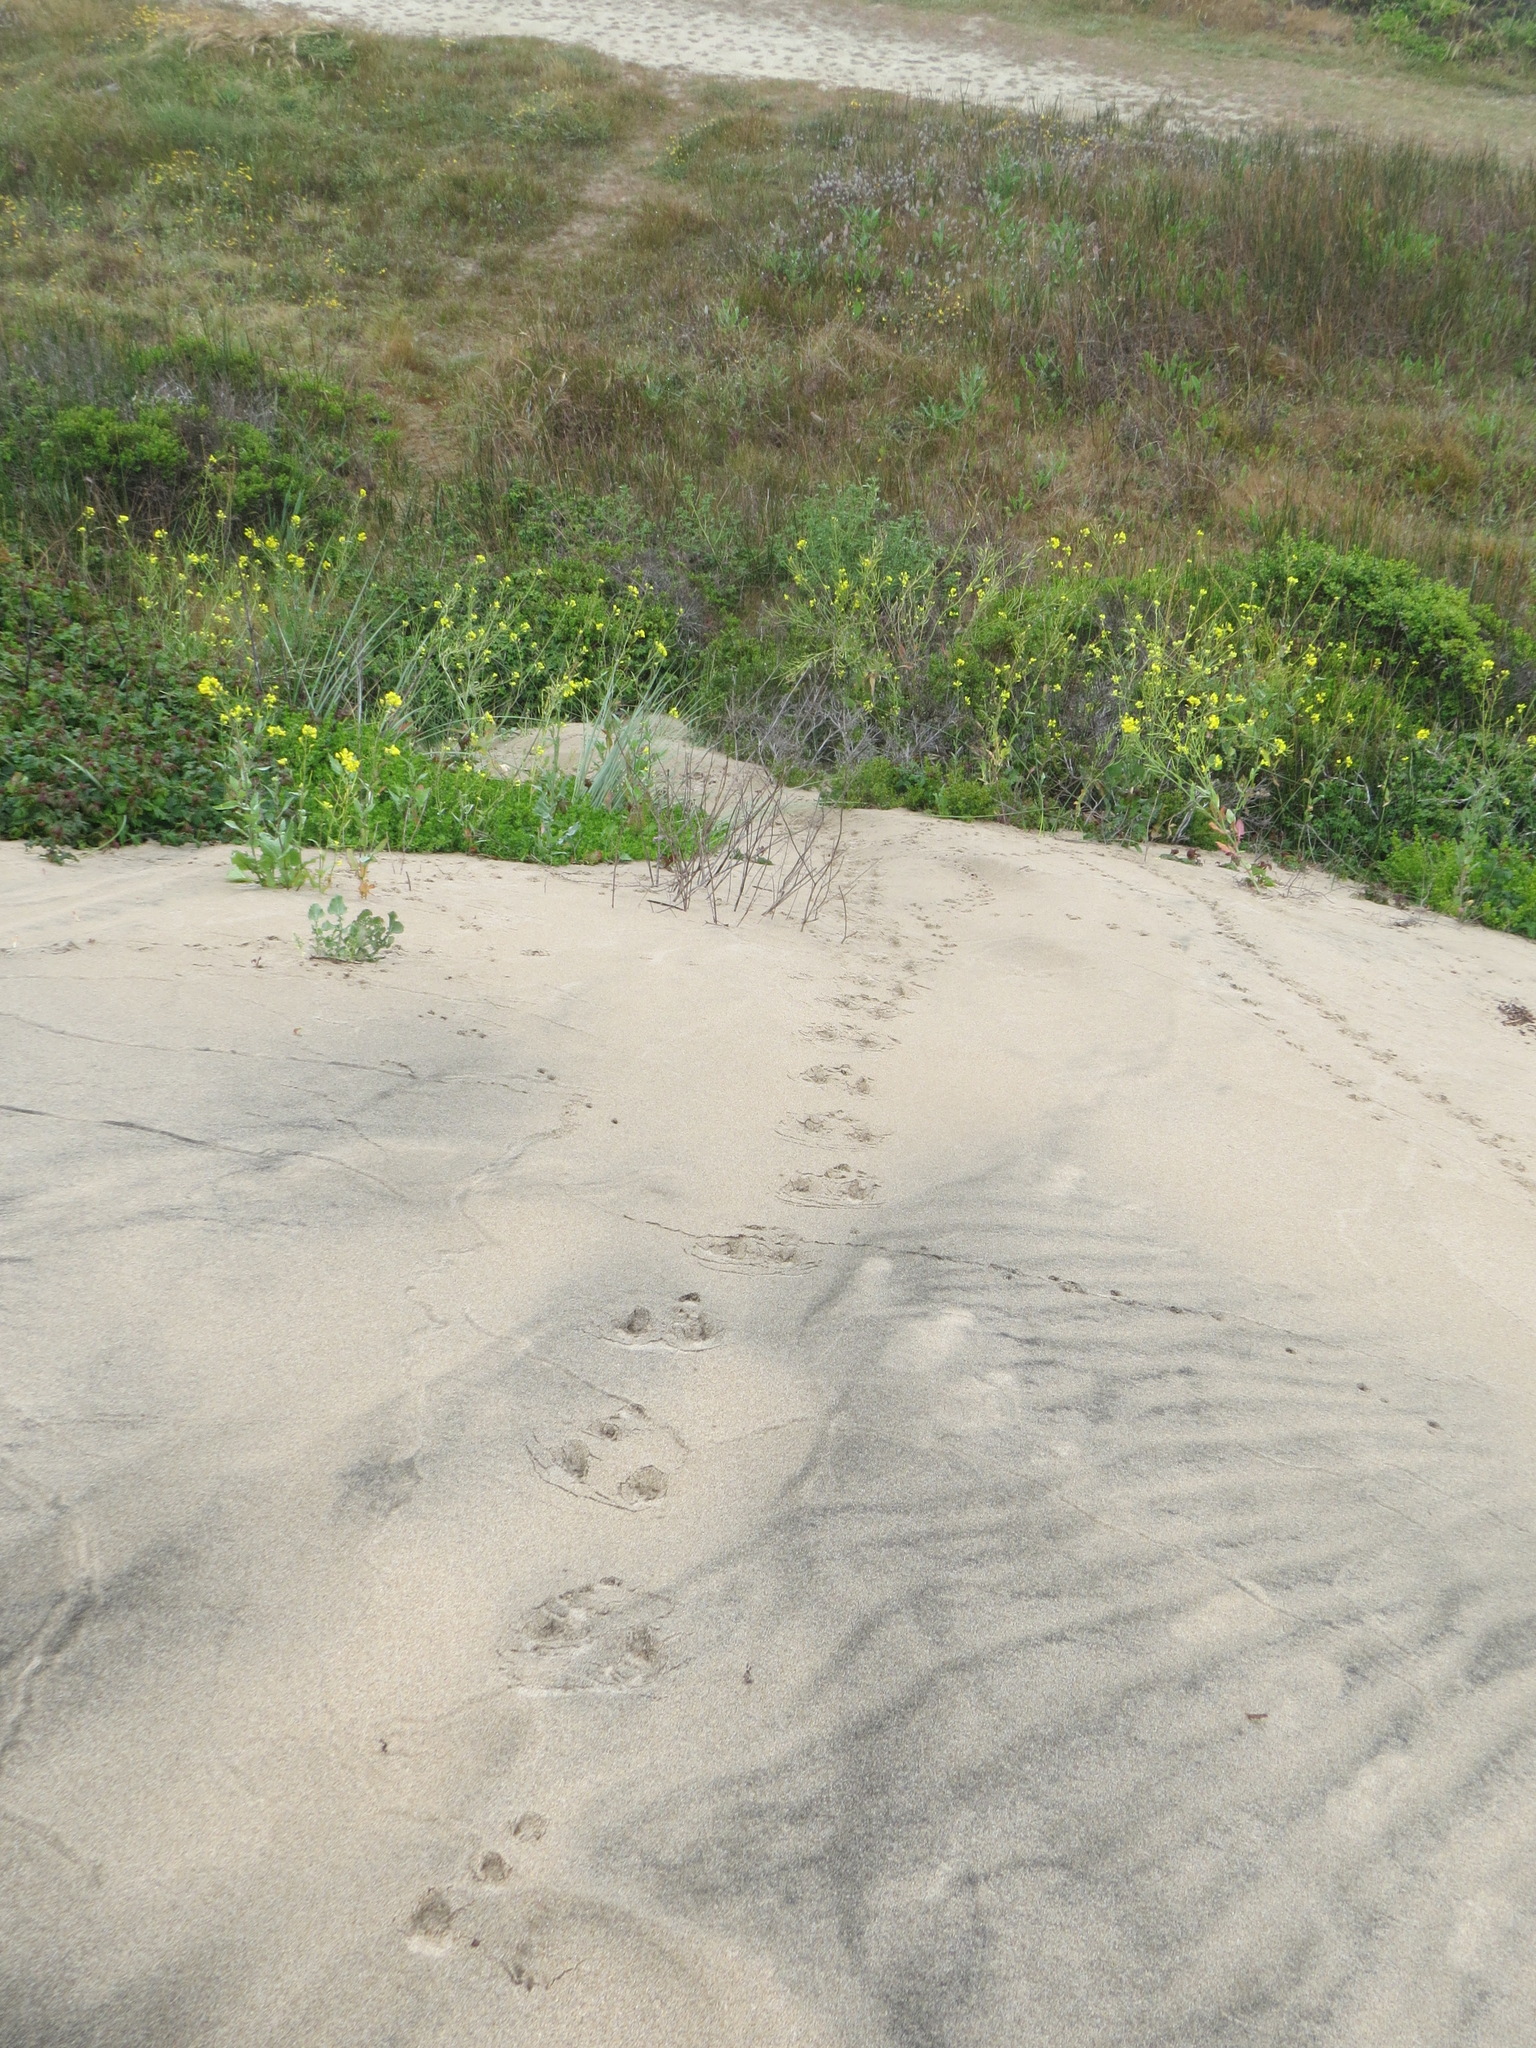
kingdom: Animalia
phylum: Chordata
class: Mammalia
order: Lagomorpha
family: Leporidae
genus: Sylvilagus
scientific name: Sylvilagus bachmani
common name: Brush rabbit
